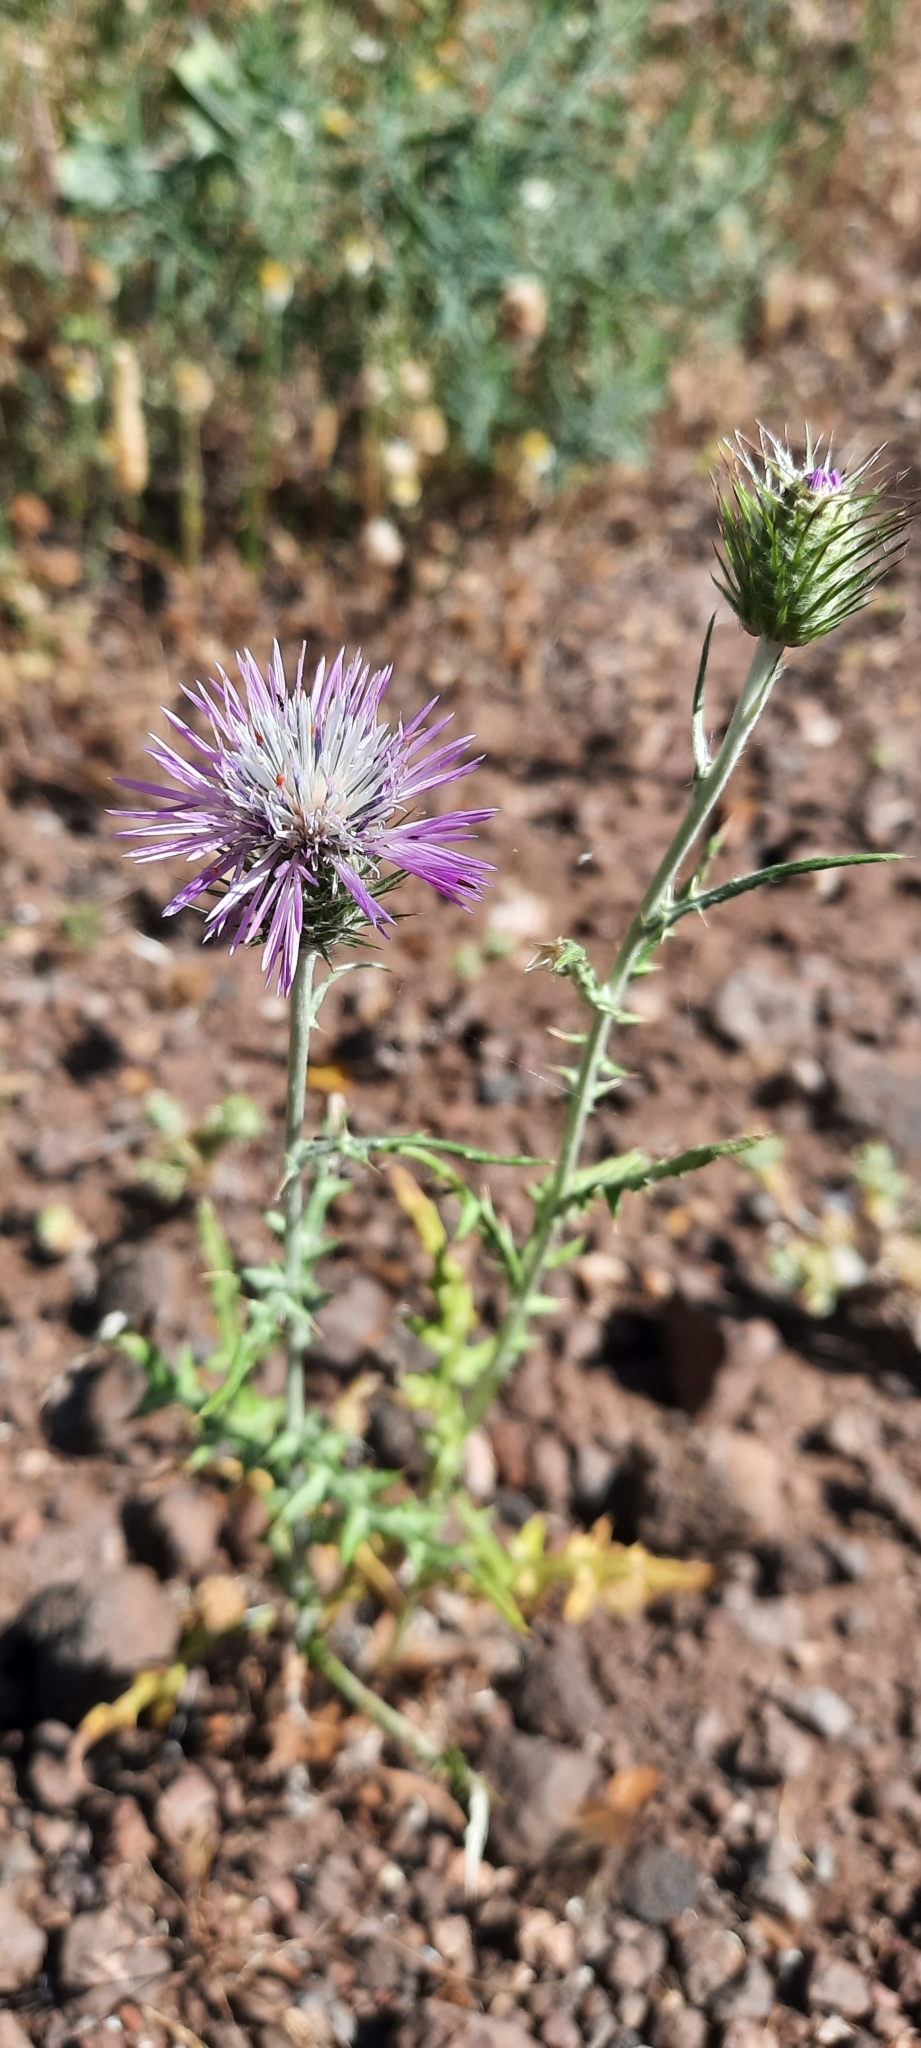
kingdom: Plantae
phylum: Tracheophyta
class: Magnoliopsida
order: Asterales
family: Asteraceae
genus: Galactites
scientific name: Galactites tomentosa
